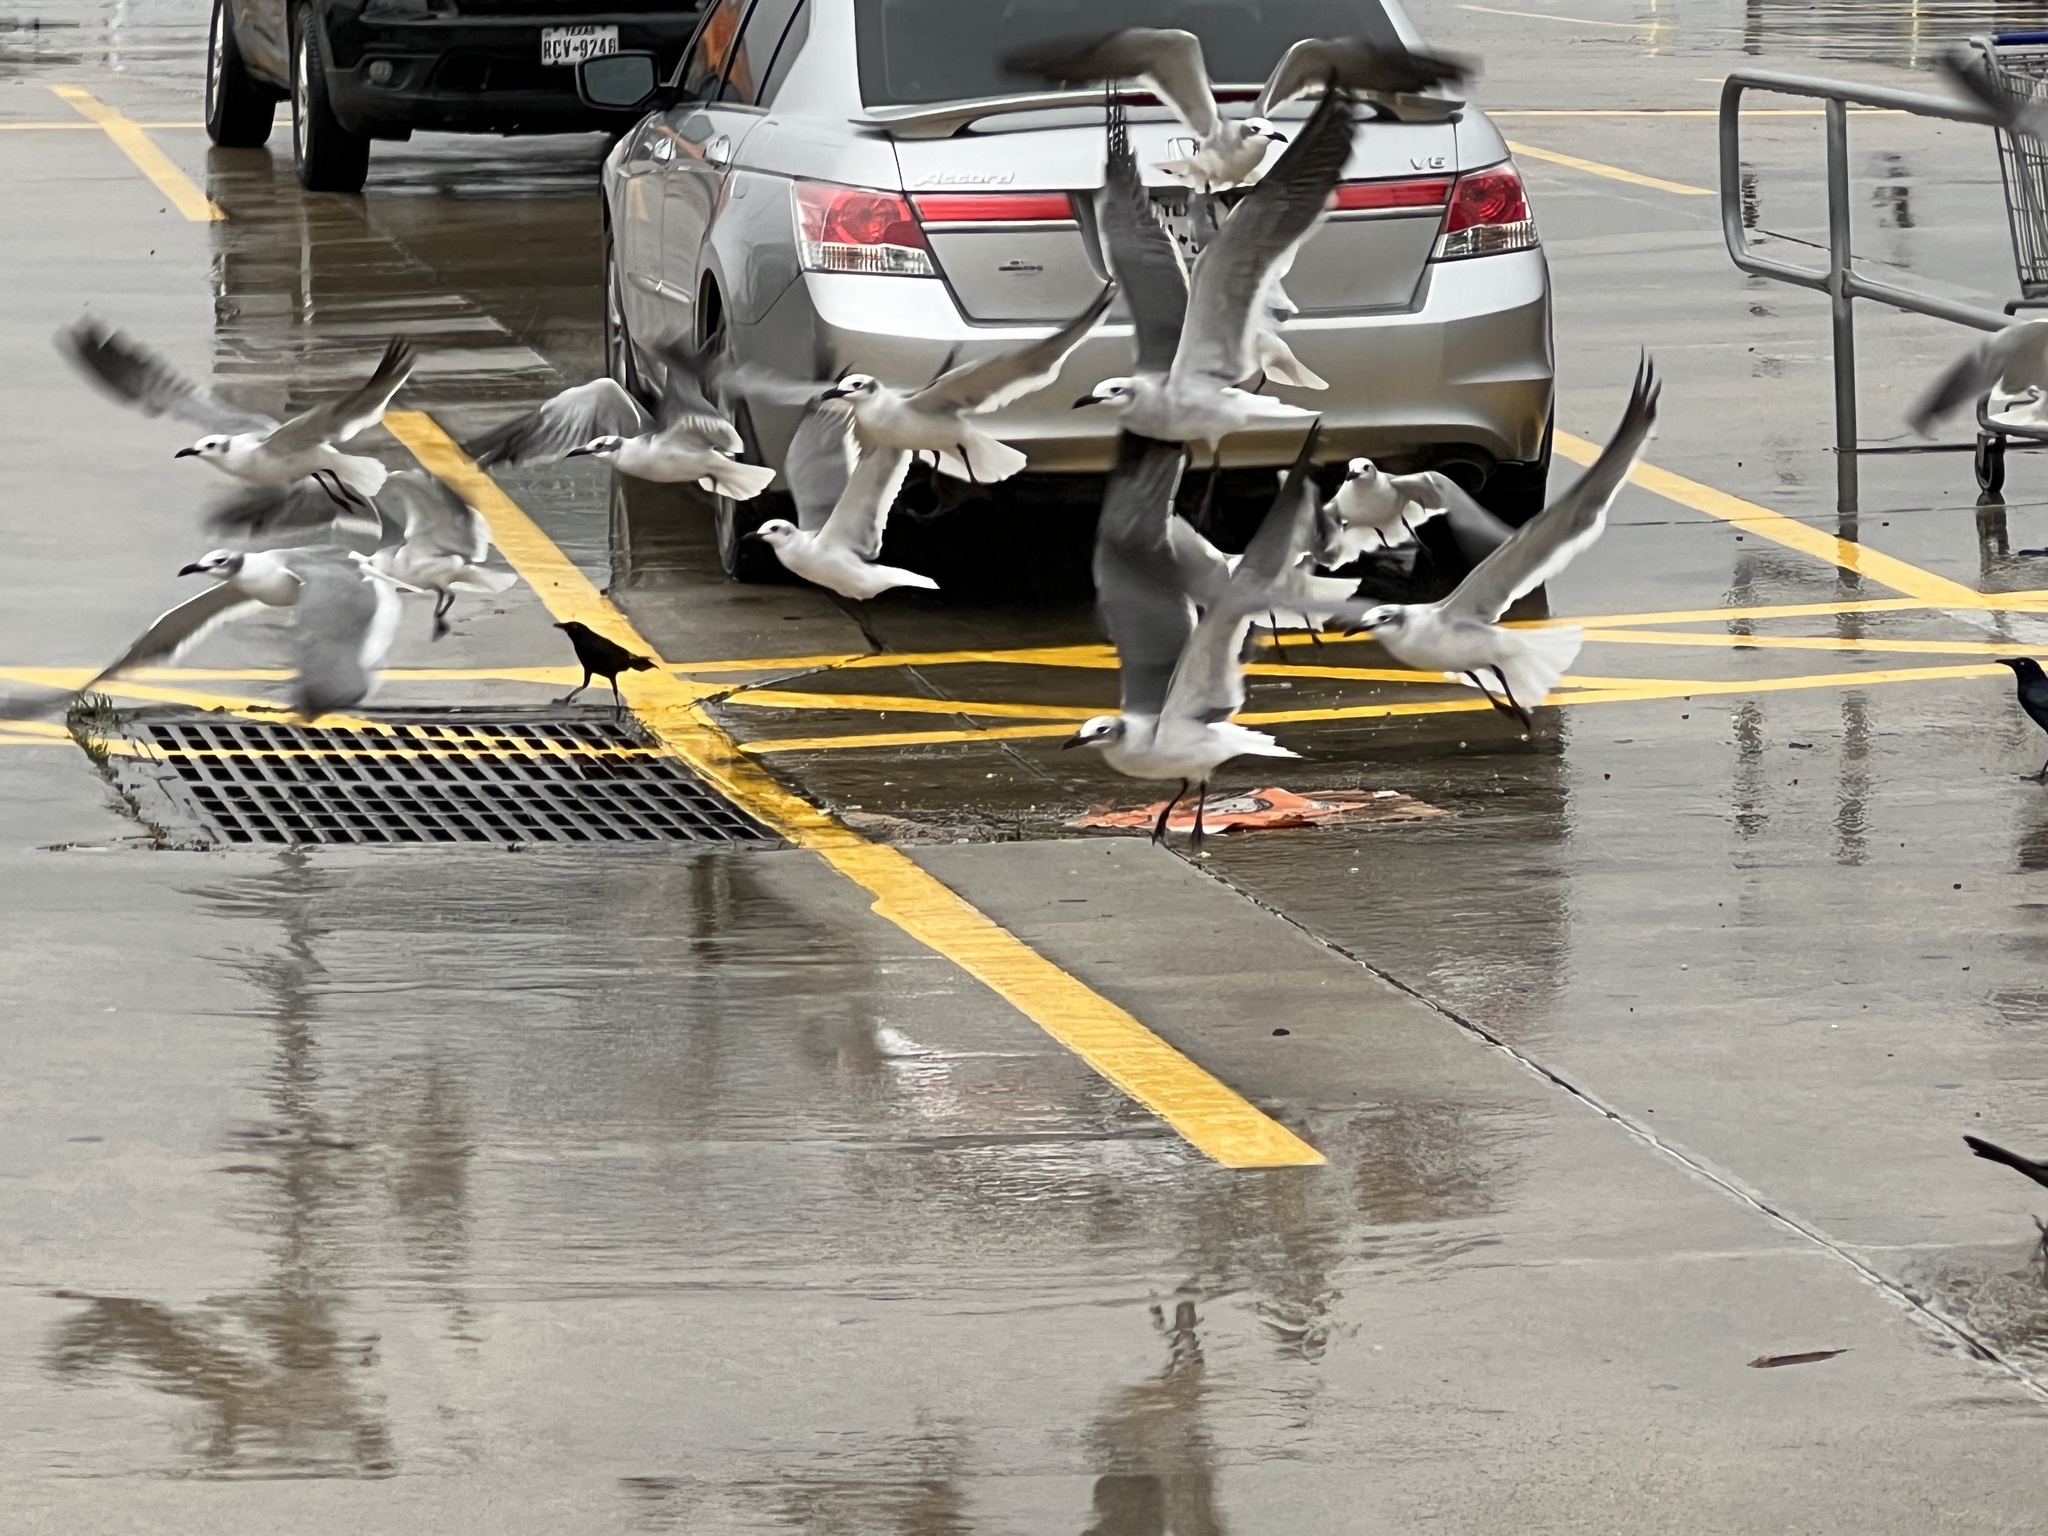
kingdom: Animalia
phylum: Chordata
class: Aves
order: Charadriiformes
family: Laridae
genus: Leucophaeus
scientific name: Leucophaeus atricilla
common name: Laughing gull
